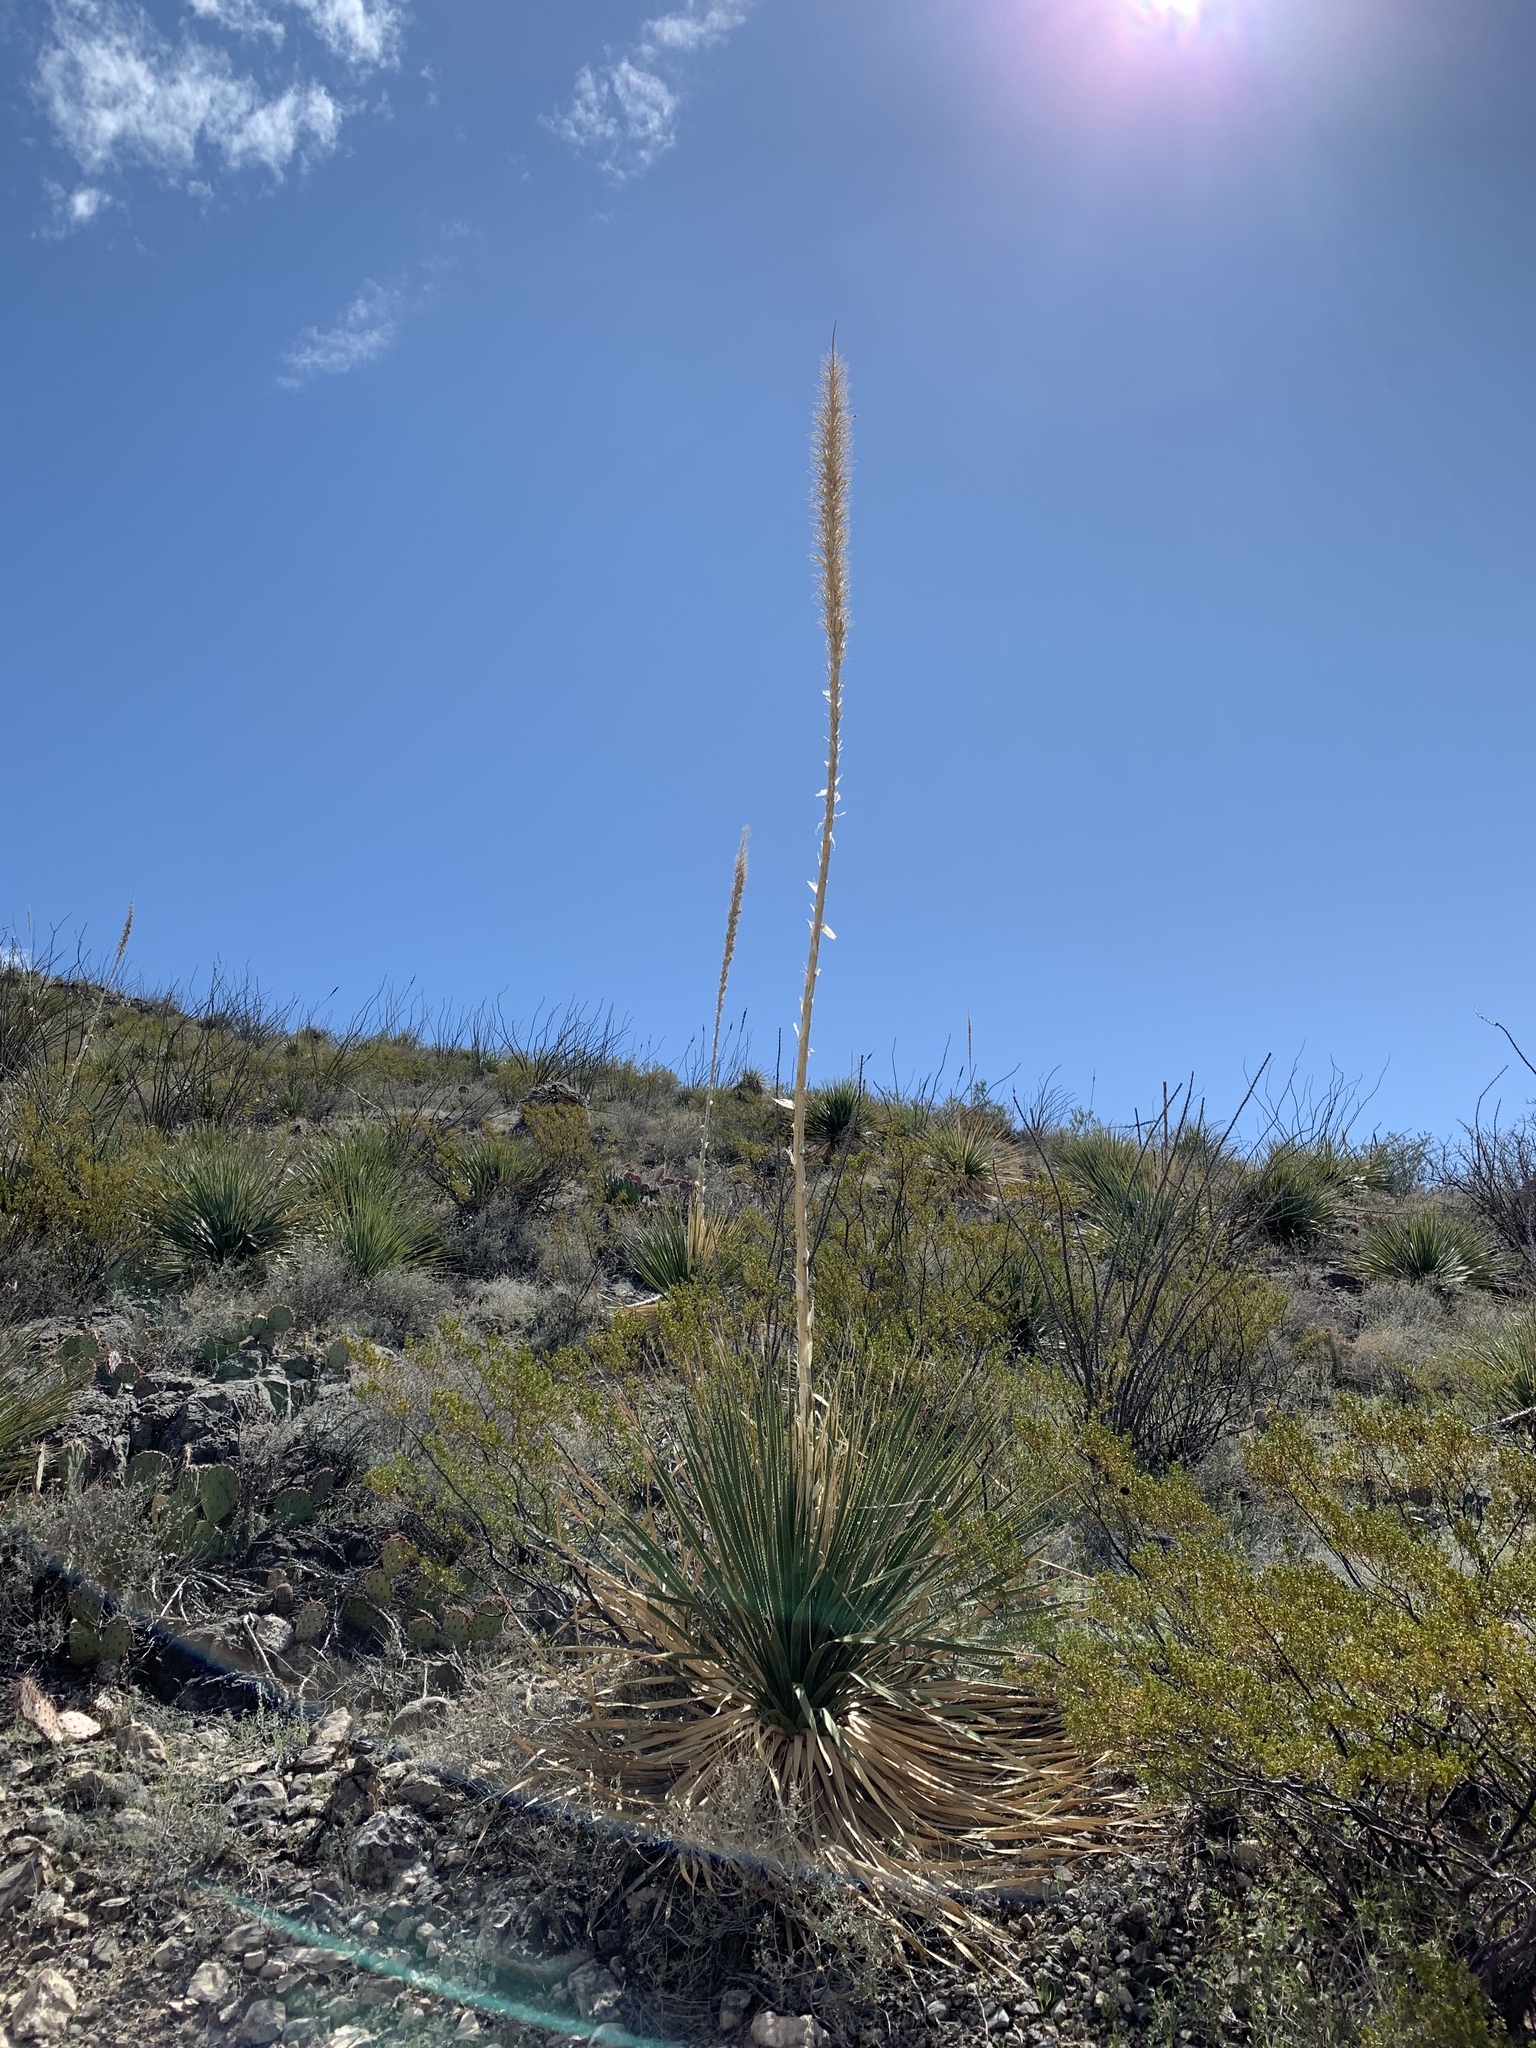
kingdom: Plantae
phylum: Tracheophyta
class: Liliopsida
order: Asparagales
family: Asparagaceae
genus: Dasylirion
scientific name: Dasylirion wheeleri
